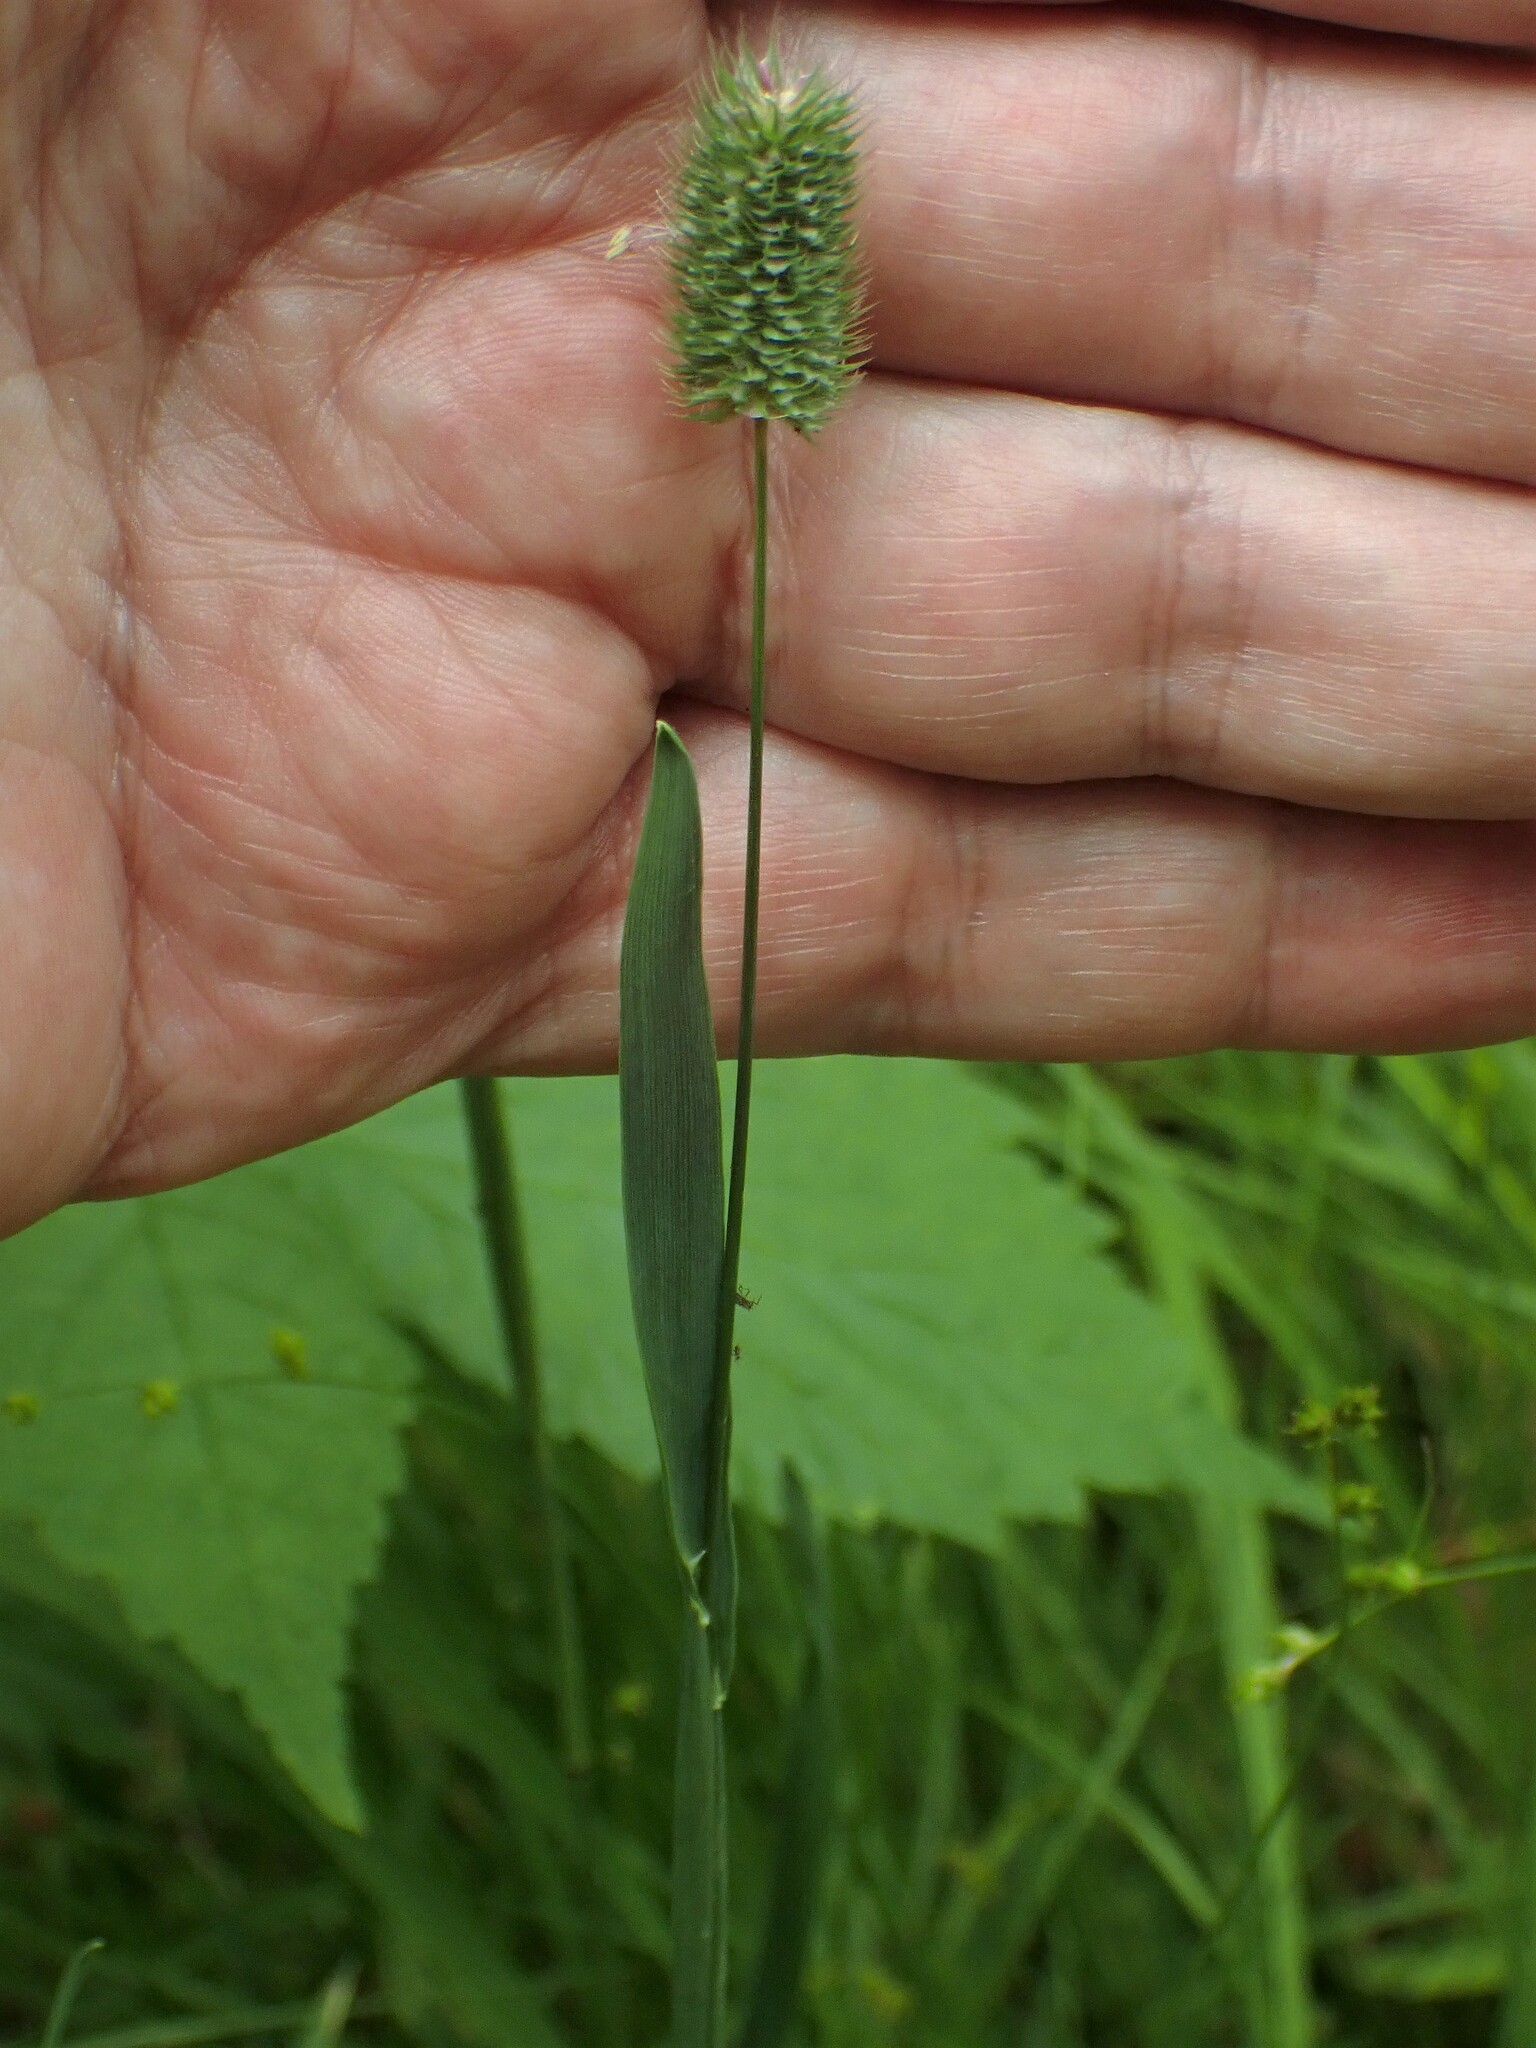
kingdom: Plantae
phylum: Tracheophyta
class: Liliopsida
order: Poales
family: Poaceae
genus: Phleum
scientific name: Phleum alpinum
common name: Alpine cat's-tail
